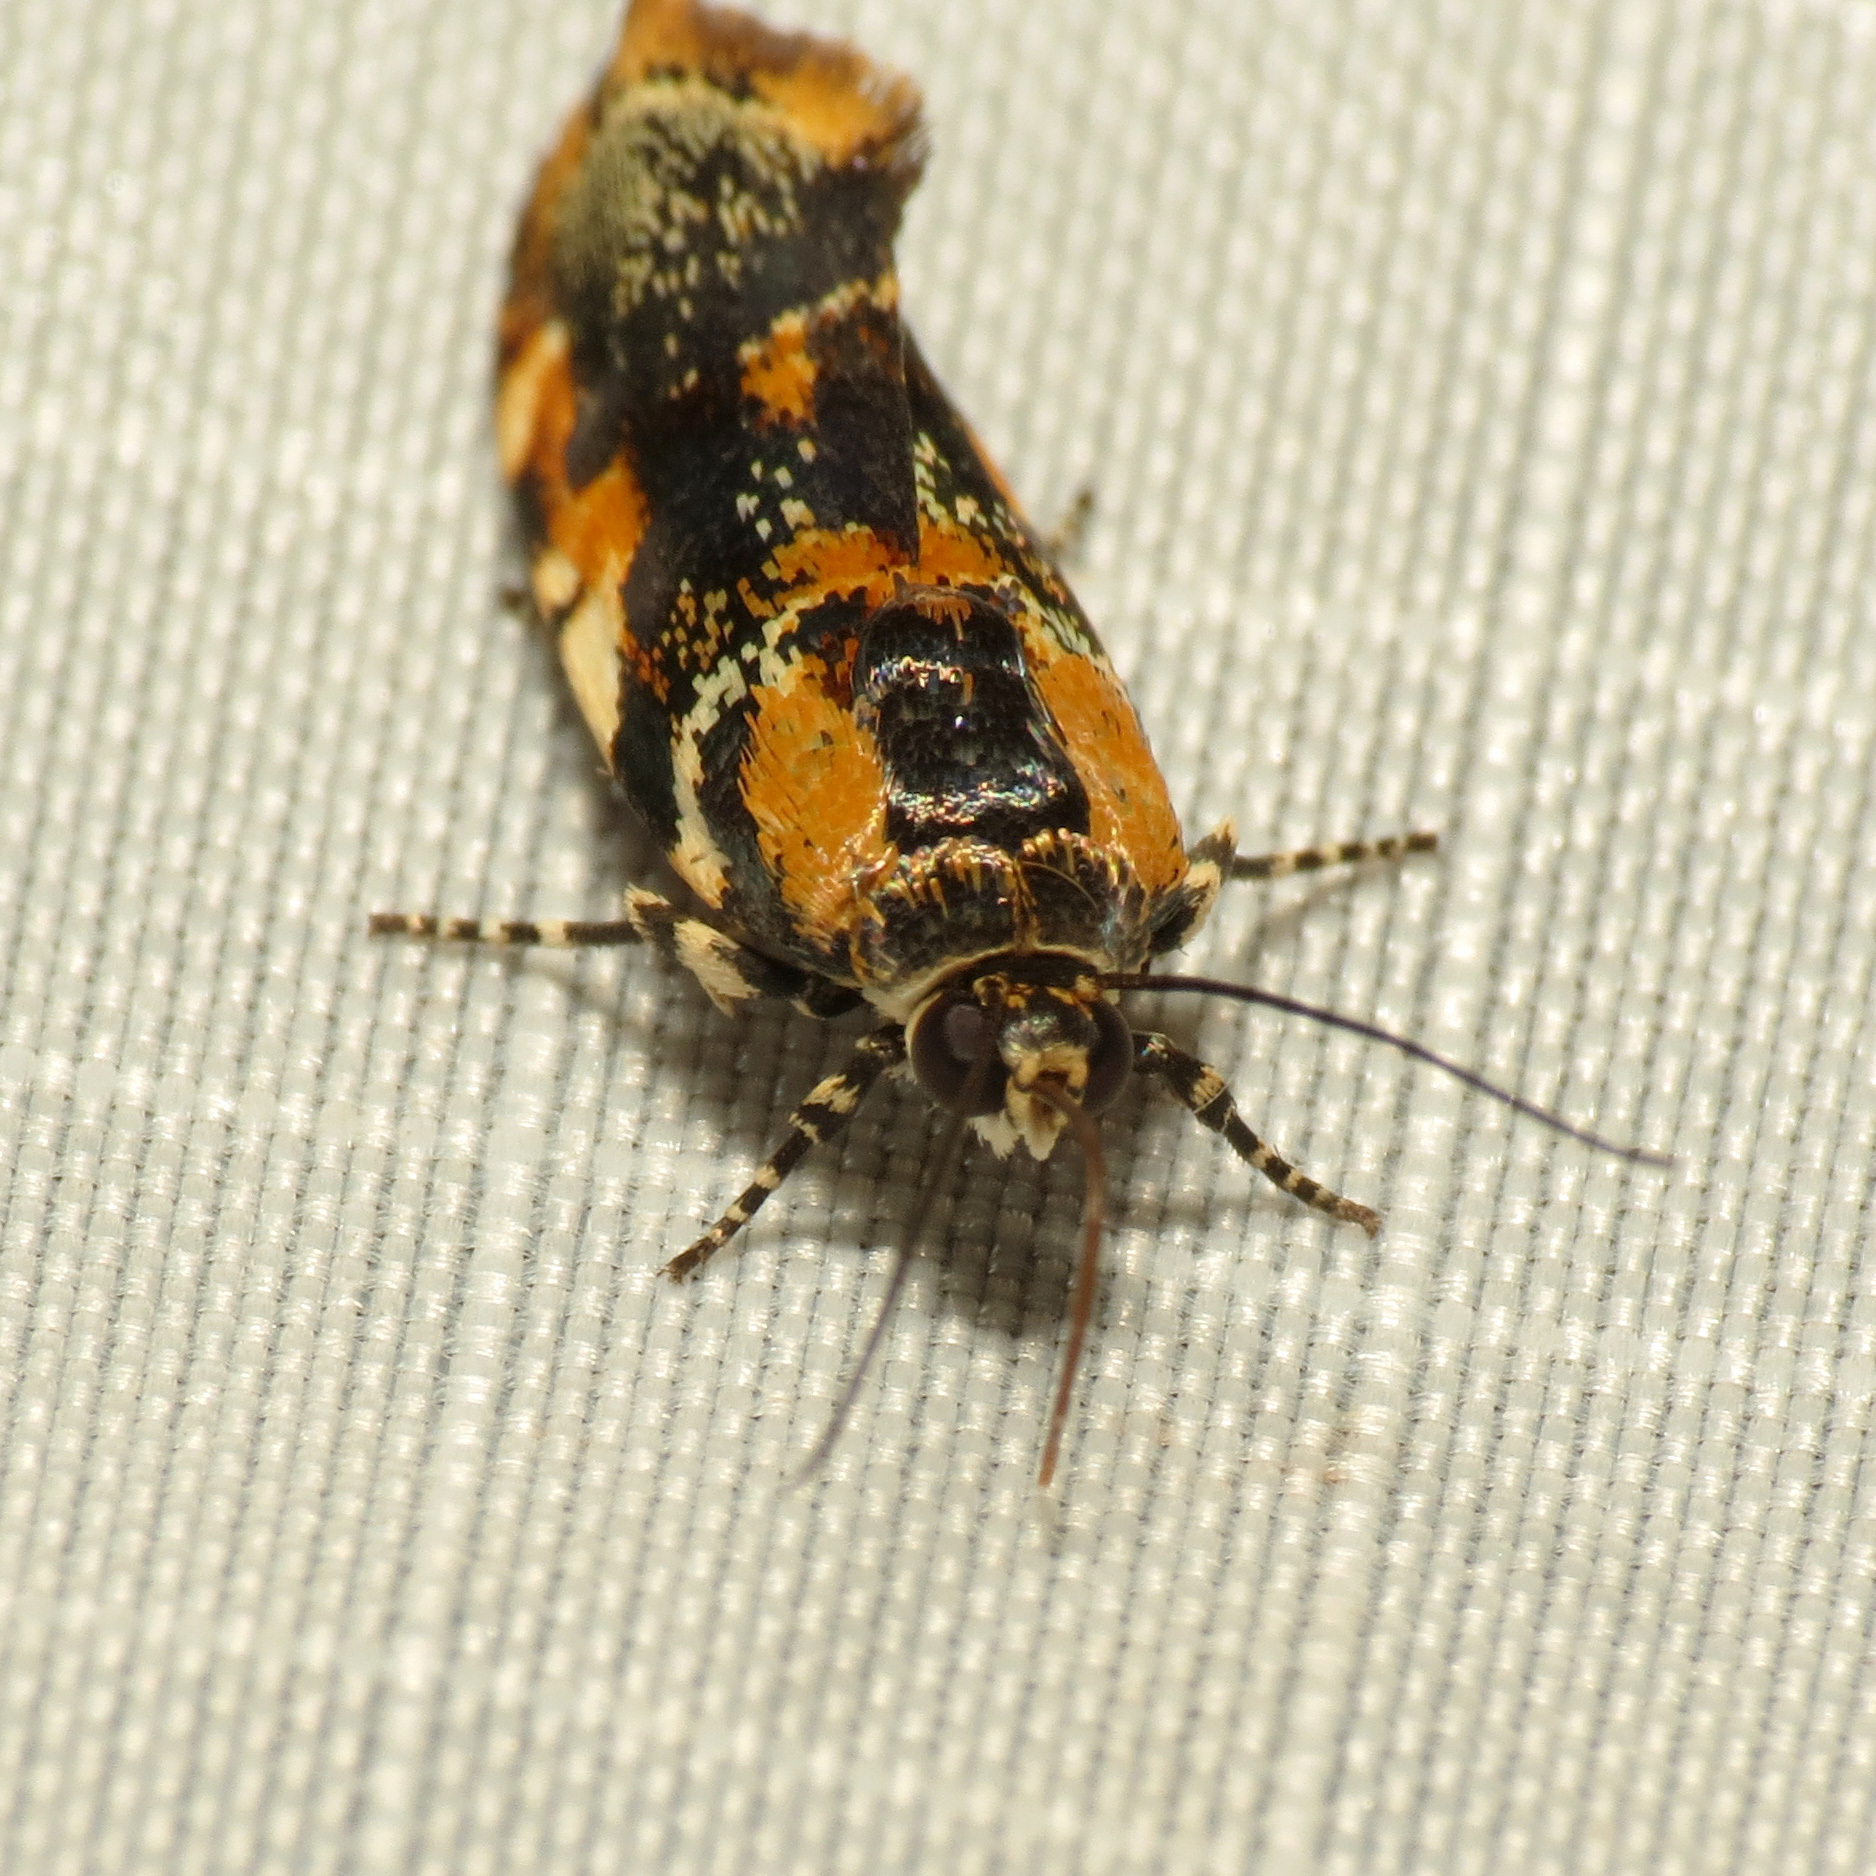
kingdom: Animalia
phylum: Arthropoda
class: Insecta
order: Lepidoptera
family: Noctuidae
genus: Spragueia
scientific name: Spragueia jaguaralis
